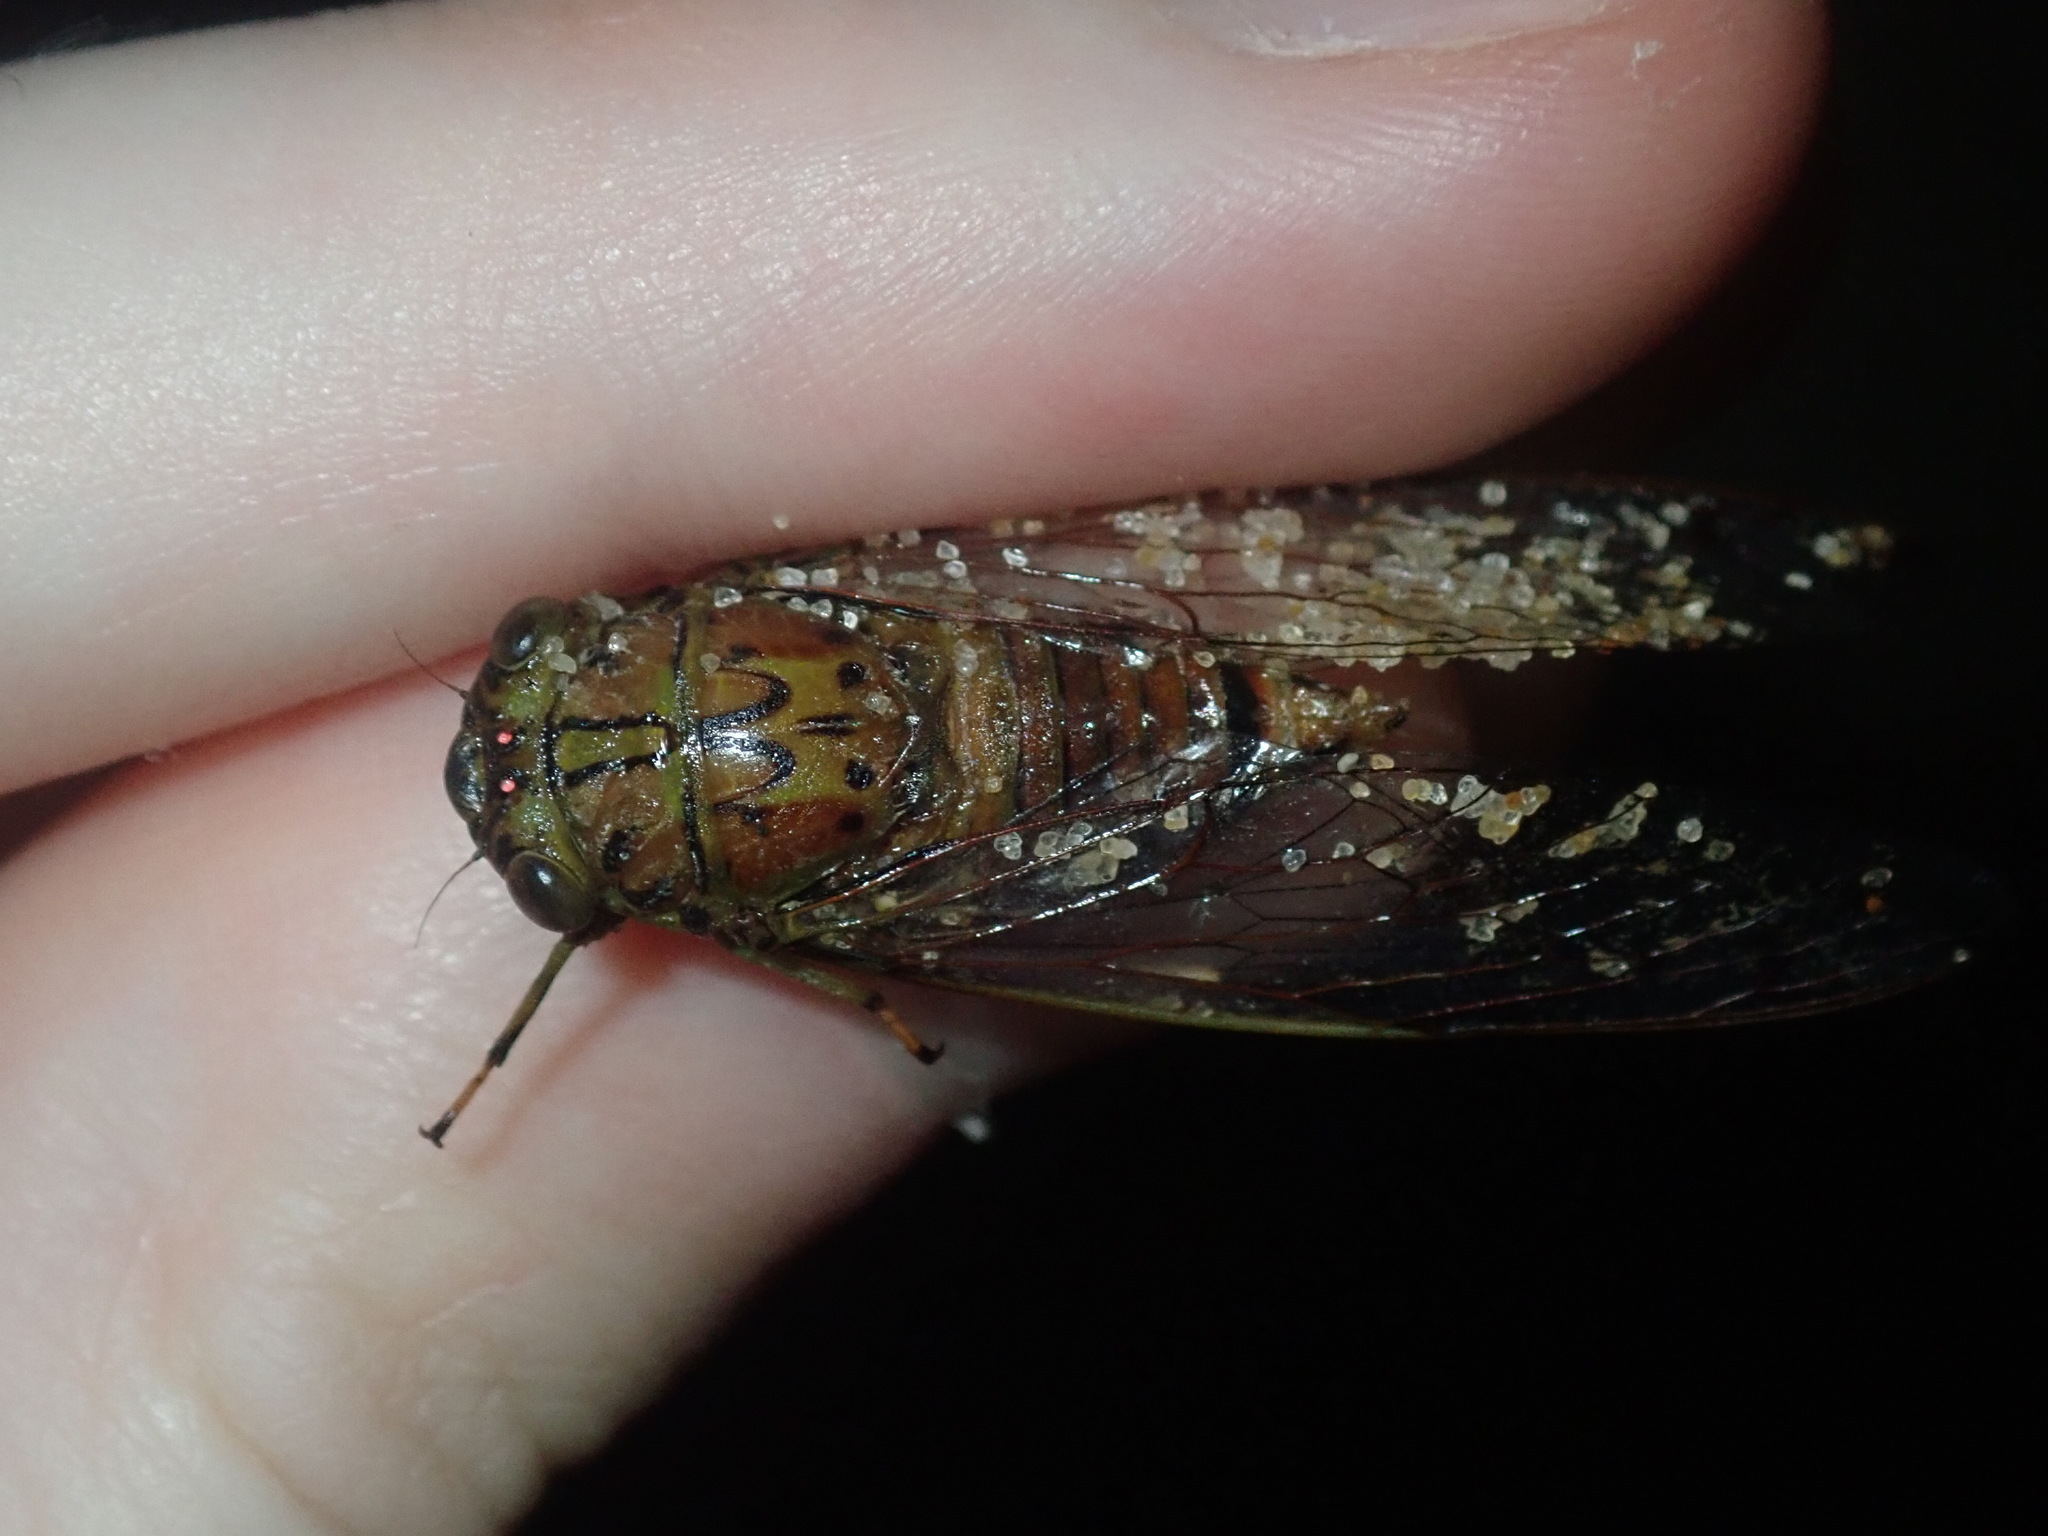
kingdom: Animalia
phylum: Arthropoda
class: Insecta
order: Hemiptera
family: Cicadidae
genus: Tamasa
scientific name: Tamasa tristigma
